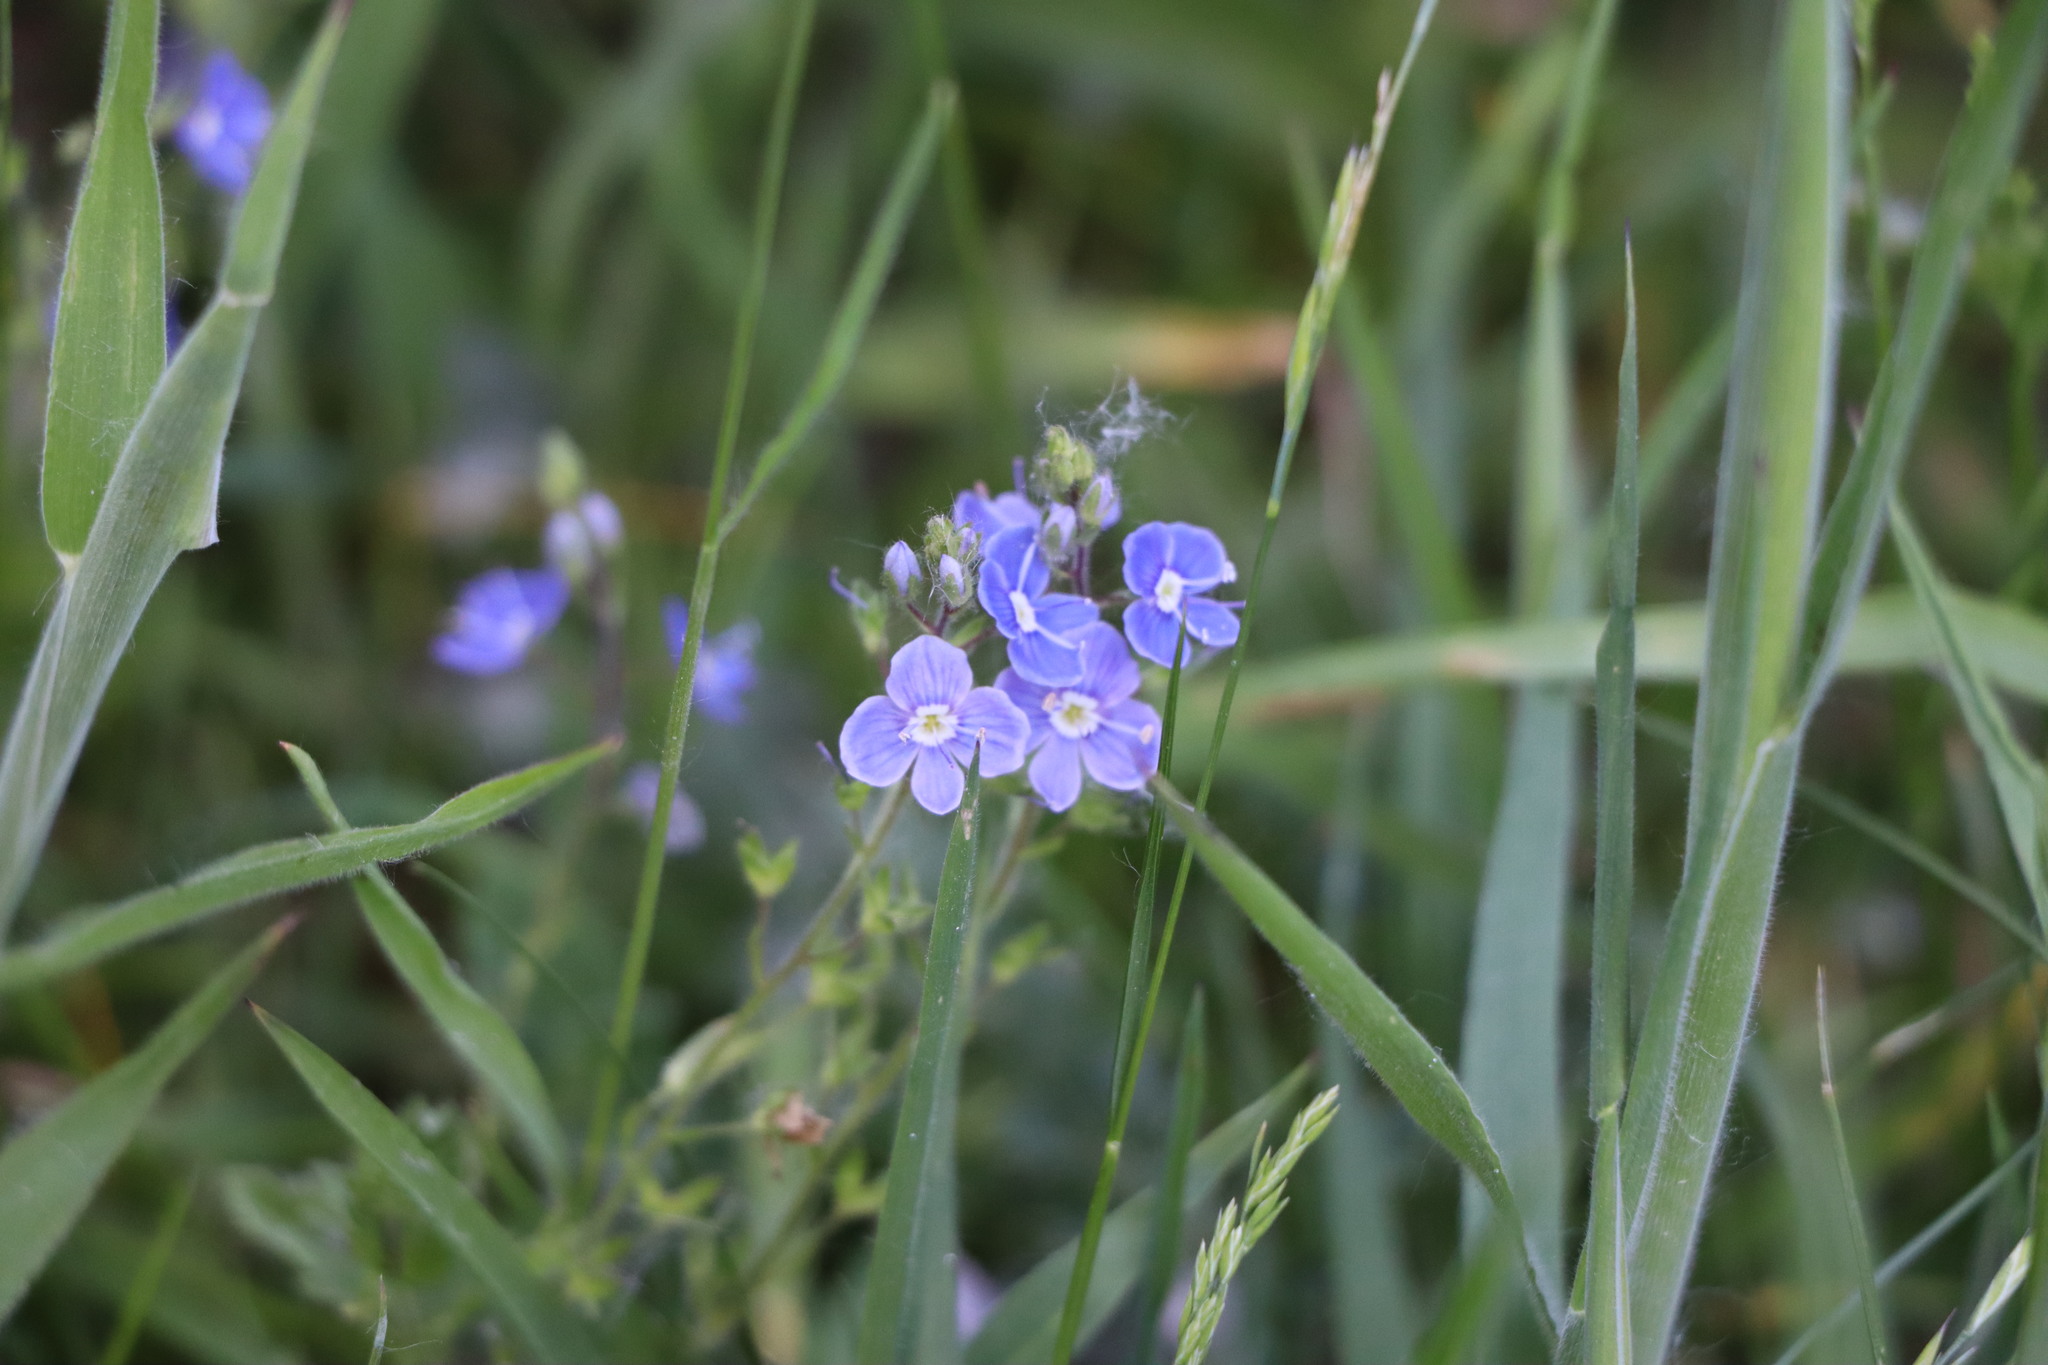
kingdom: Plantae
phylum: Tracheophyta
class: Magnoliopsida
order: Lamiales
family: Plantaginaceae
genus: Veronica
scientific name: Veronica chamaedrys
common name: Germander speedwell
